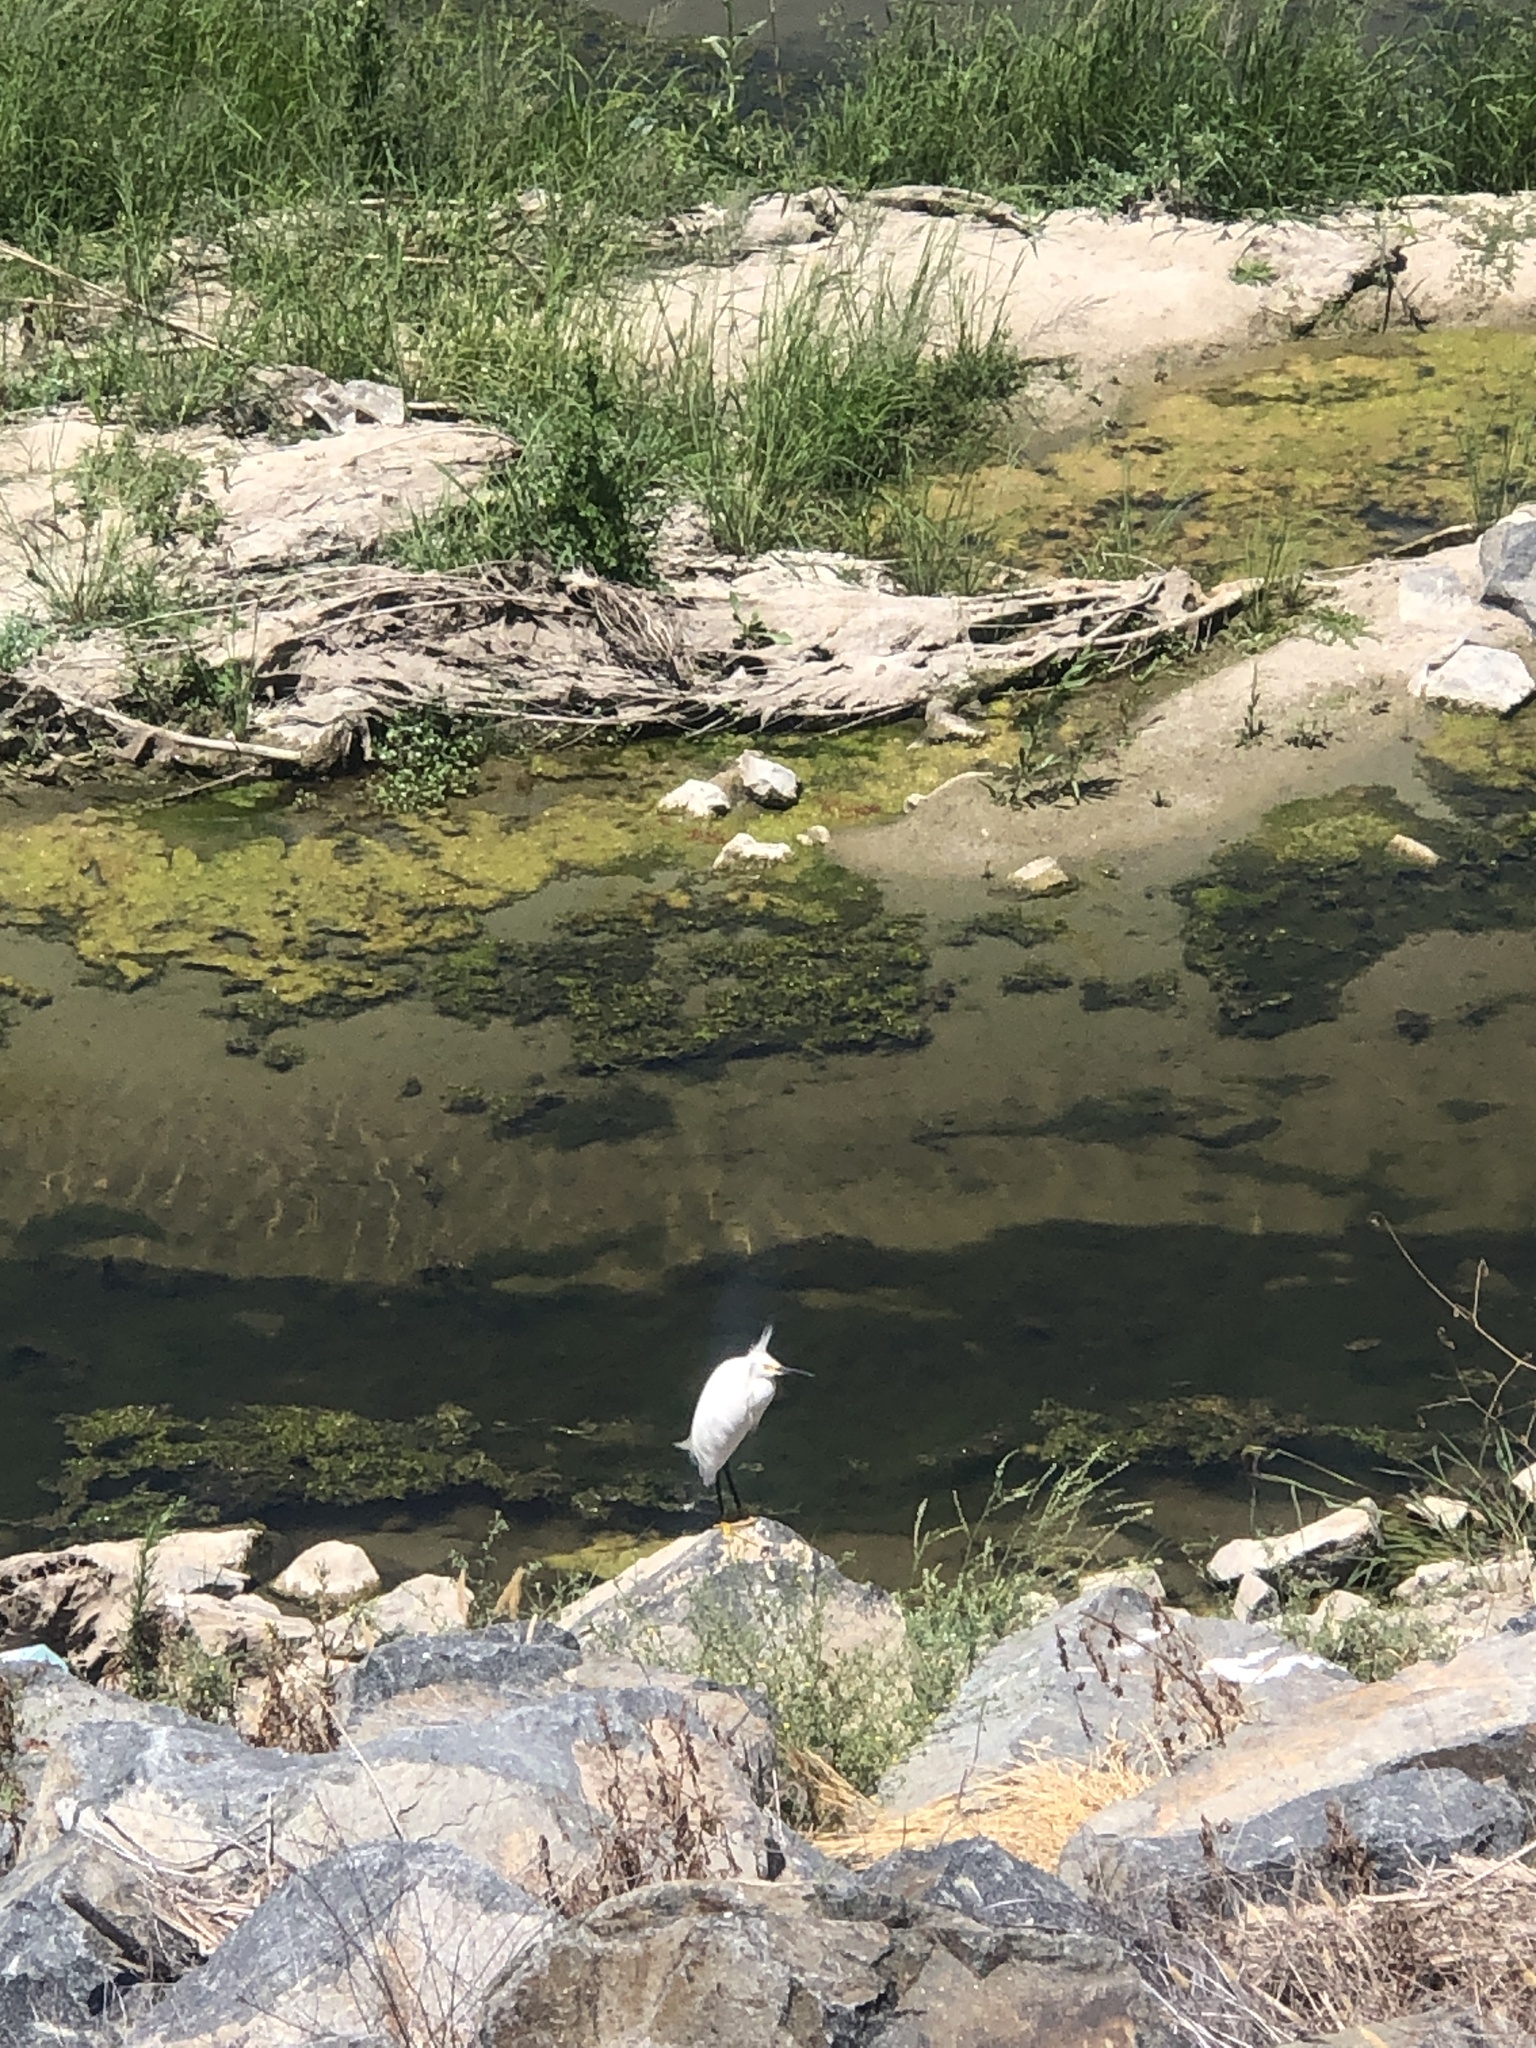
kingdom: Animalia
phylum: Chordata
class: Aves
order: Pelecaniformes
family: Ardeidae
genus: Egretta
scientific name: Egretta thula
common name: Snowy egret
